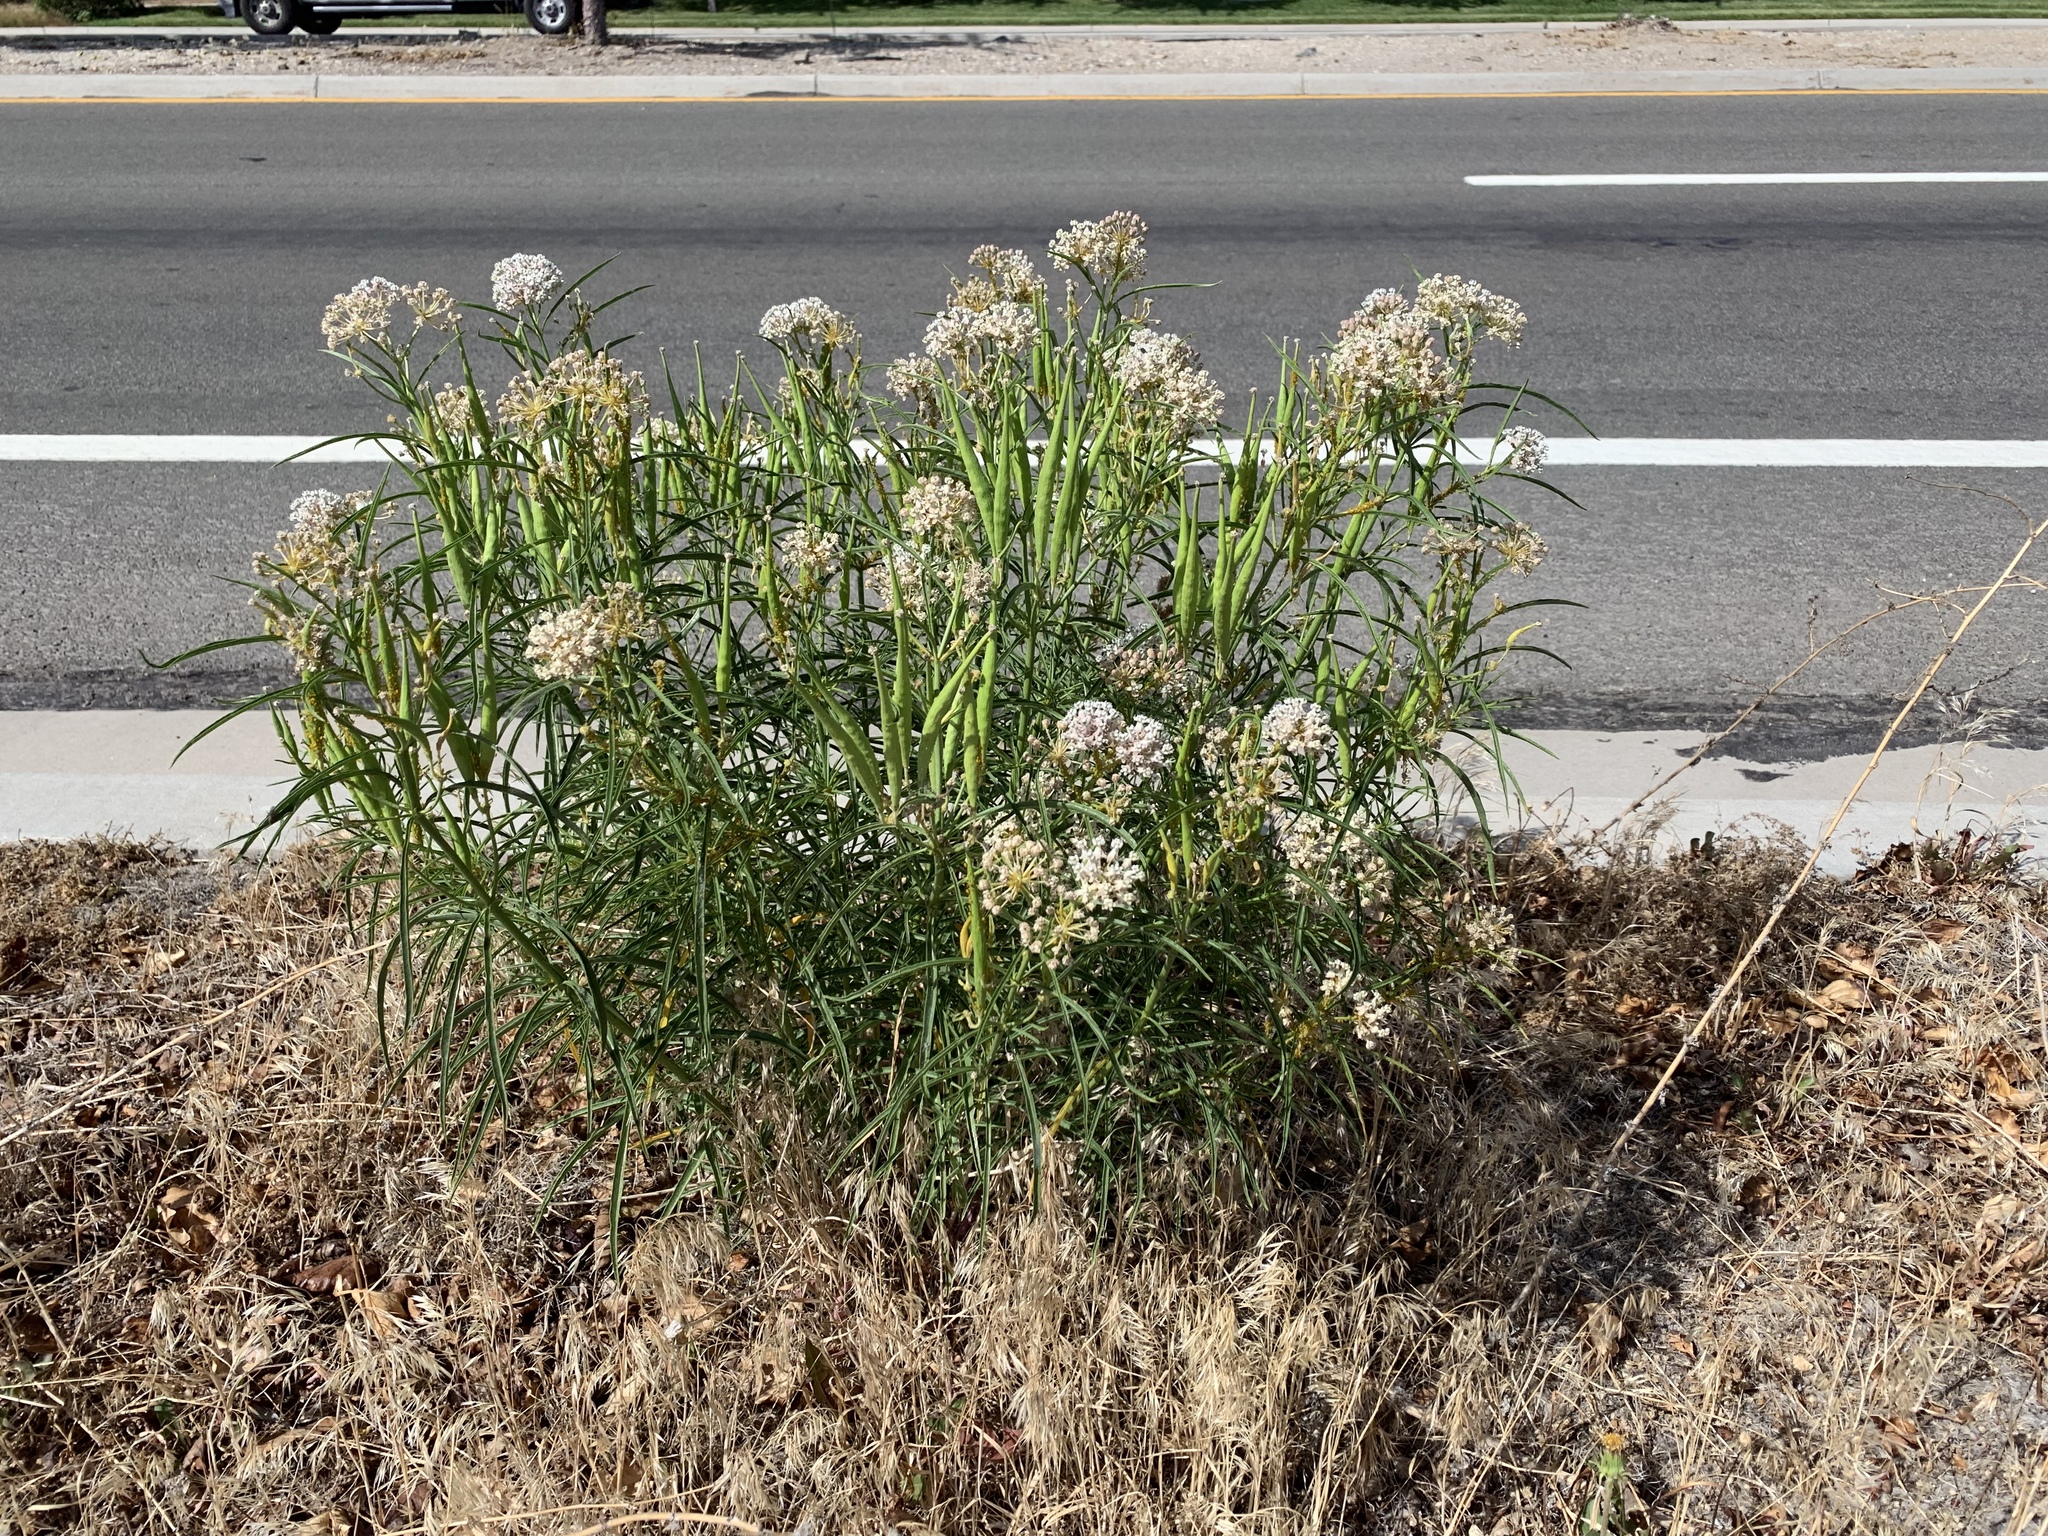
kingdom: Plantae
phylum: Tracheophyta
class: Magnoliopsida
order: Gentianales
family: Apocynaceae
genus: Asclepias
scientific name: Asclepias fascicularis
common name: Mexican milkweed
